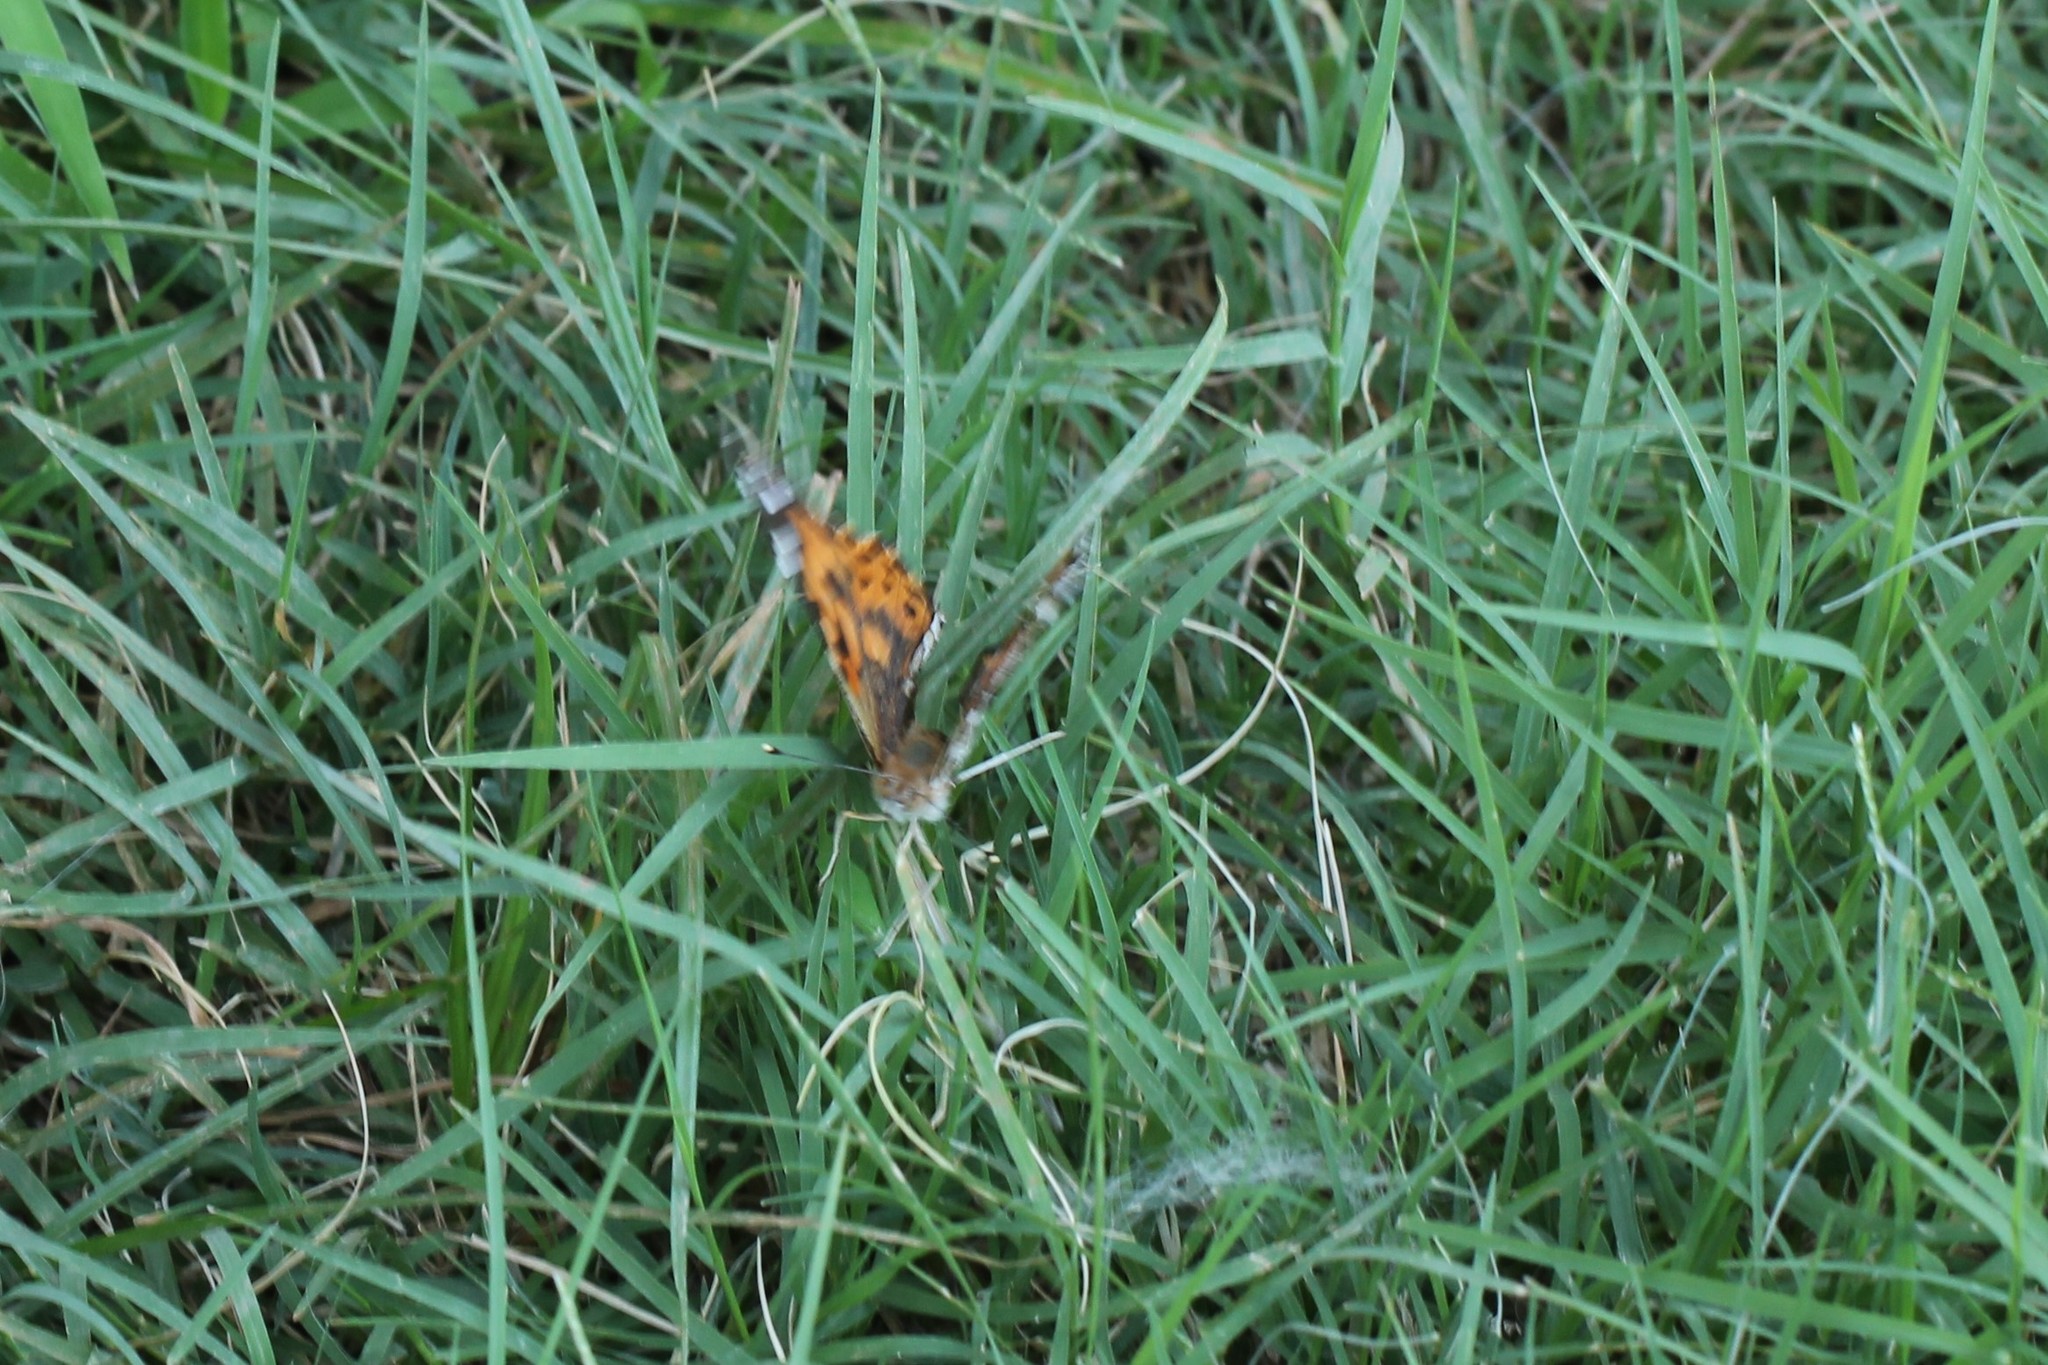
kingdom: Animalia
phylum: Arthropoda
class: Insecta
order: Lepidoptera
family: Nymphalidae
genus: Vanessa
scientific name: Vanessa cardui
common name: Painted lady
